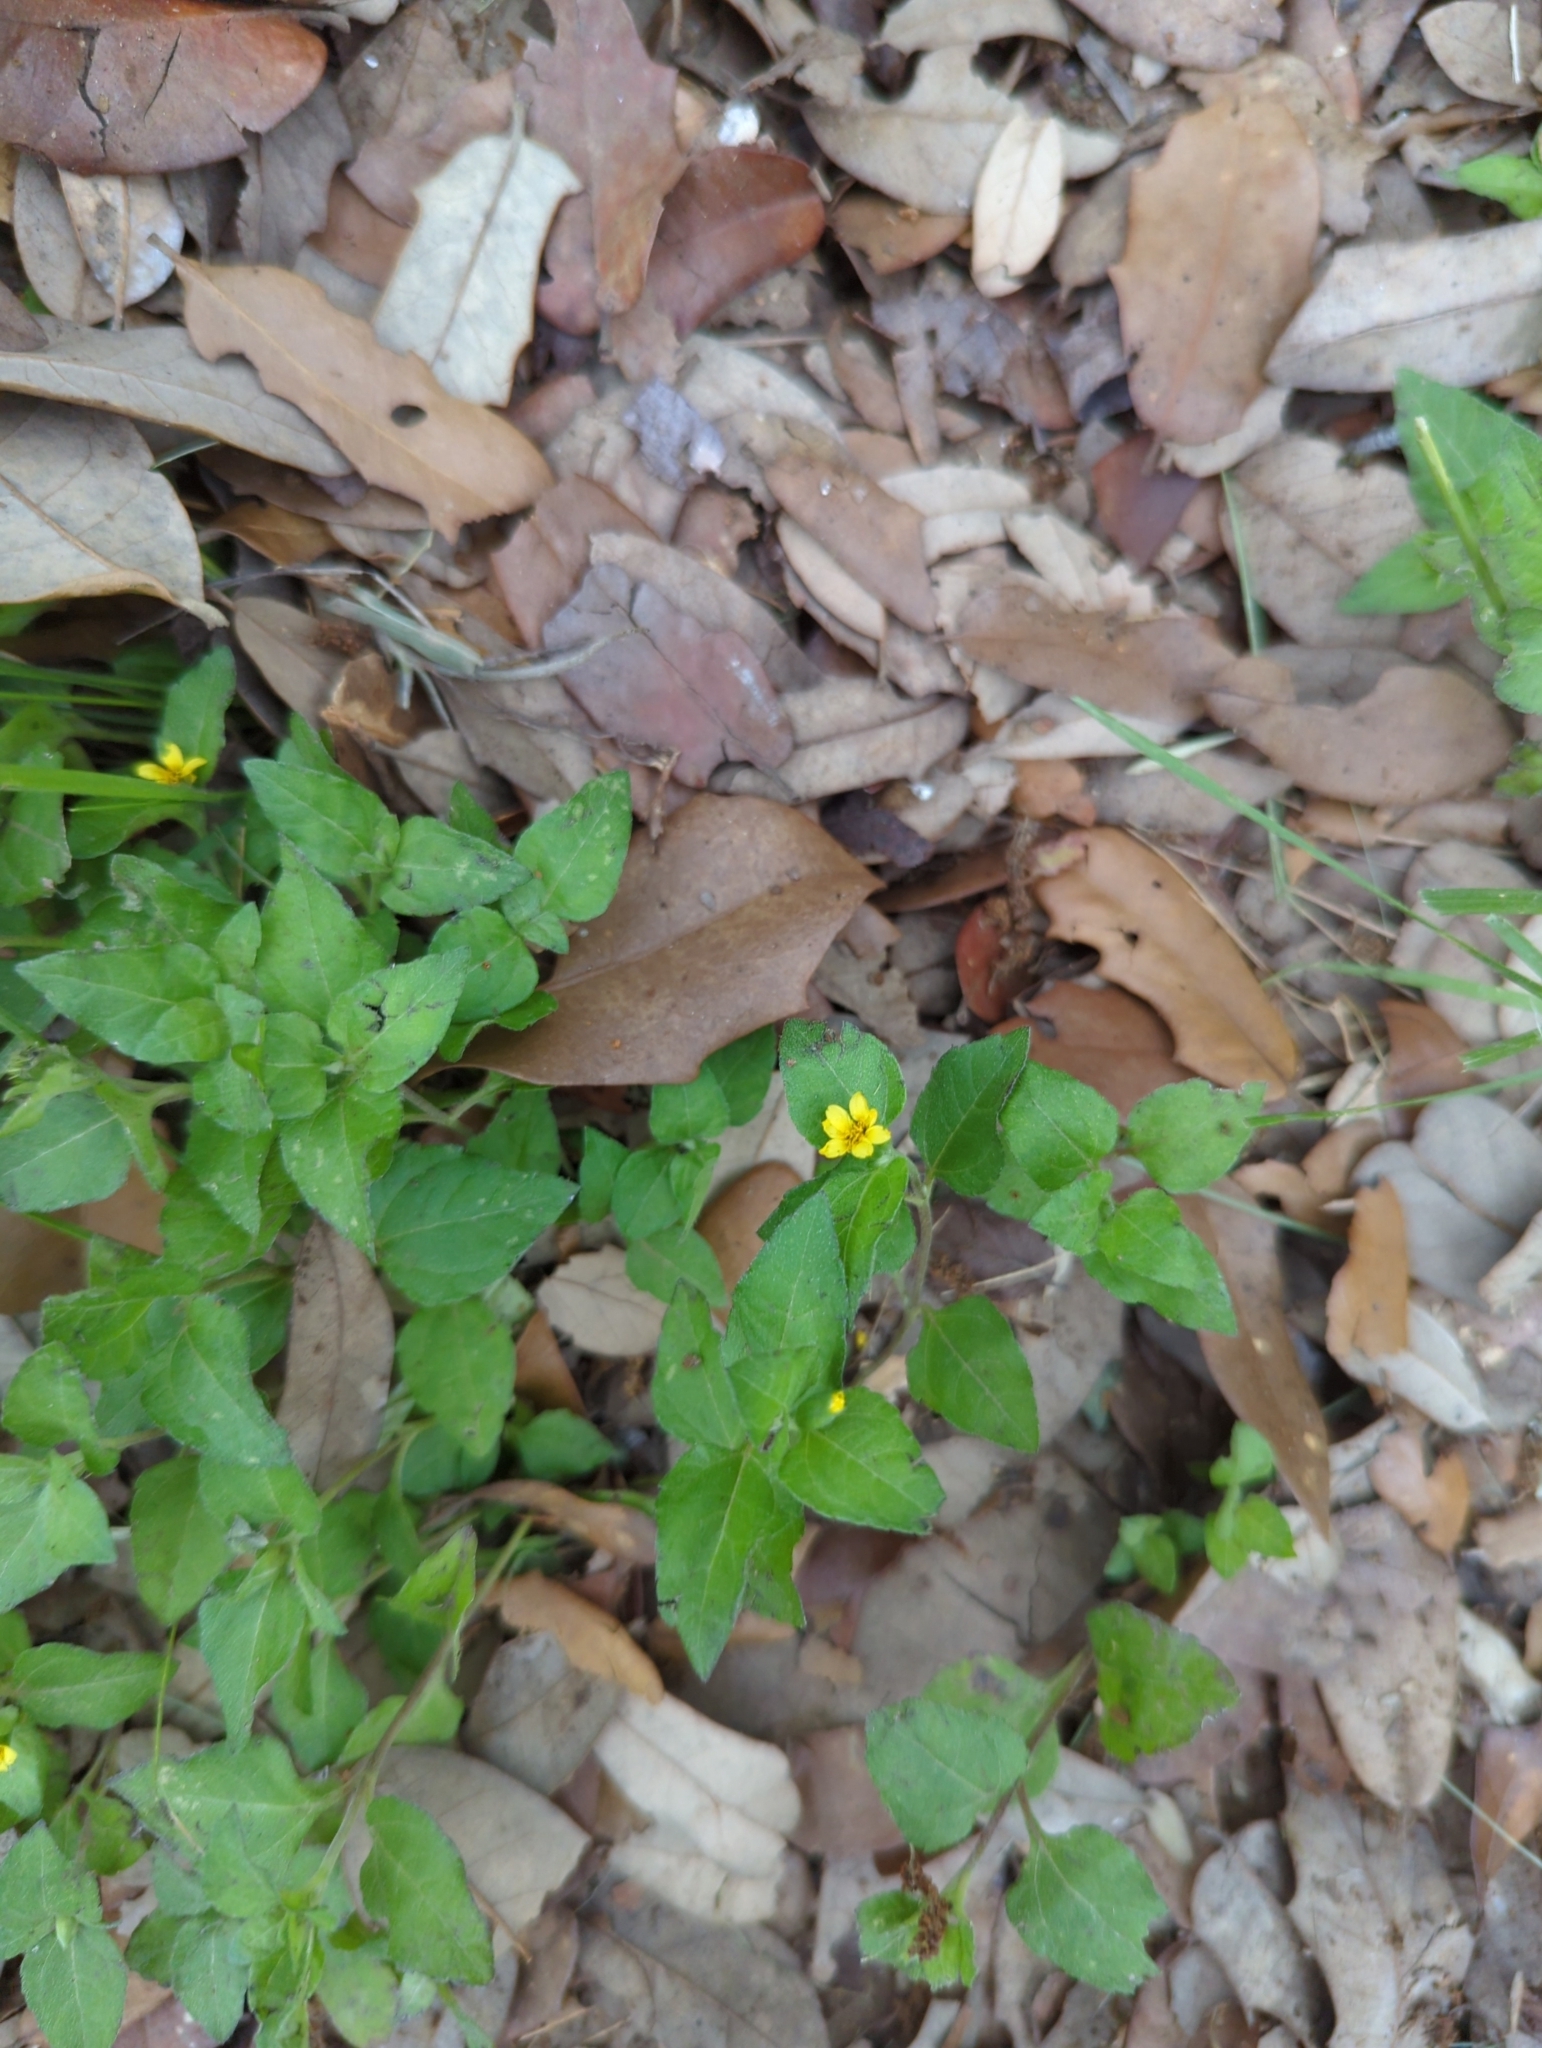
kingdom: Plantae
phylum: Tracheophyta
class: Magnoliopsida
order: Asterales
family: Asteraceae
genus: Calyptocarpus
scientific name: Calyptocarpus vialis
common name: Straggler daisy
